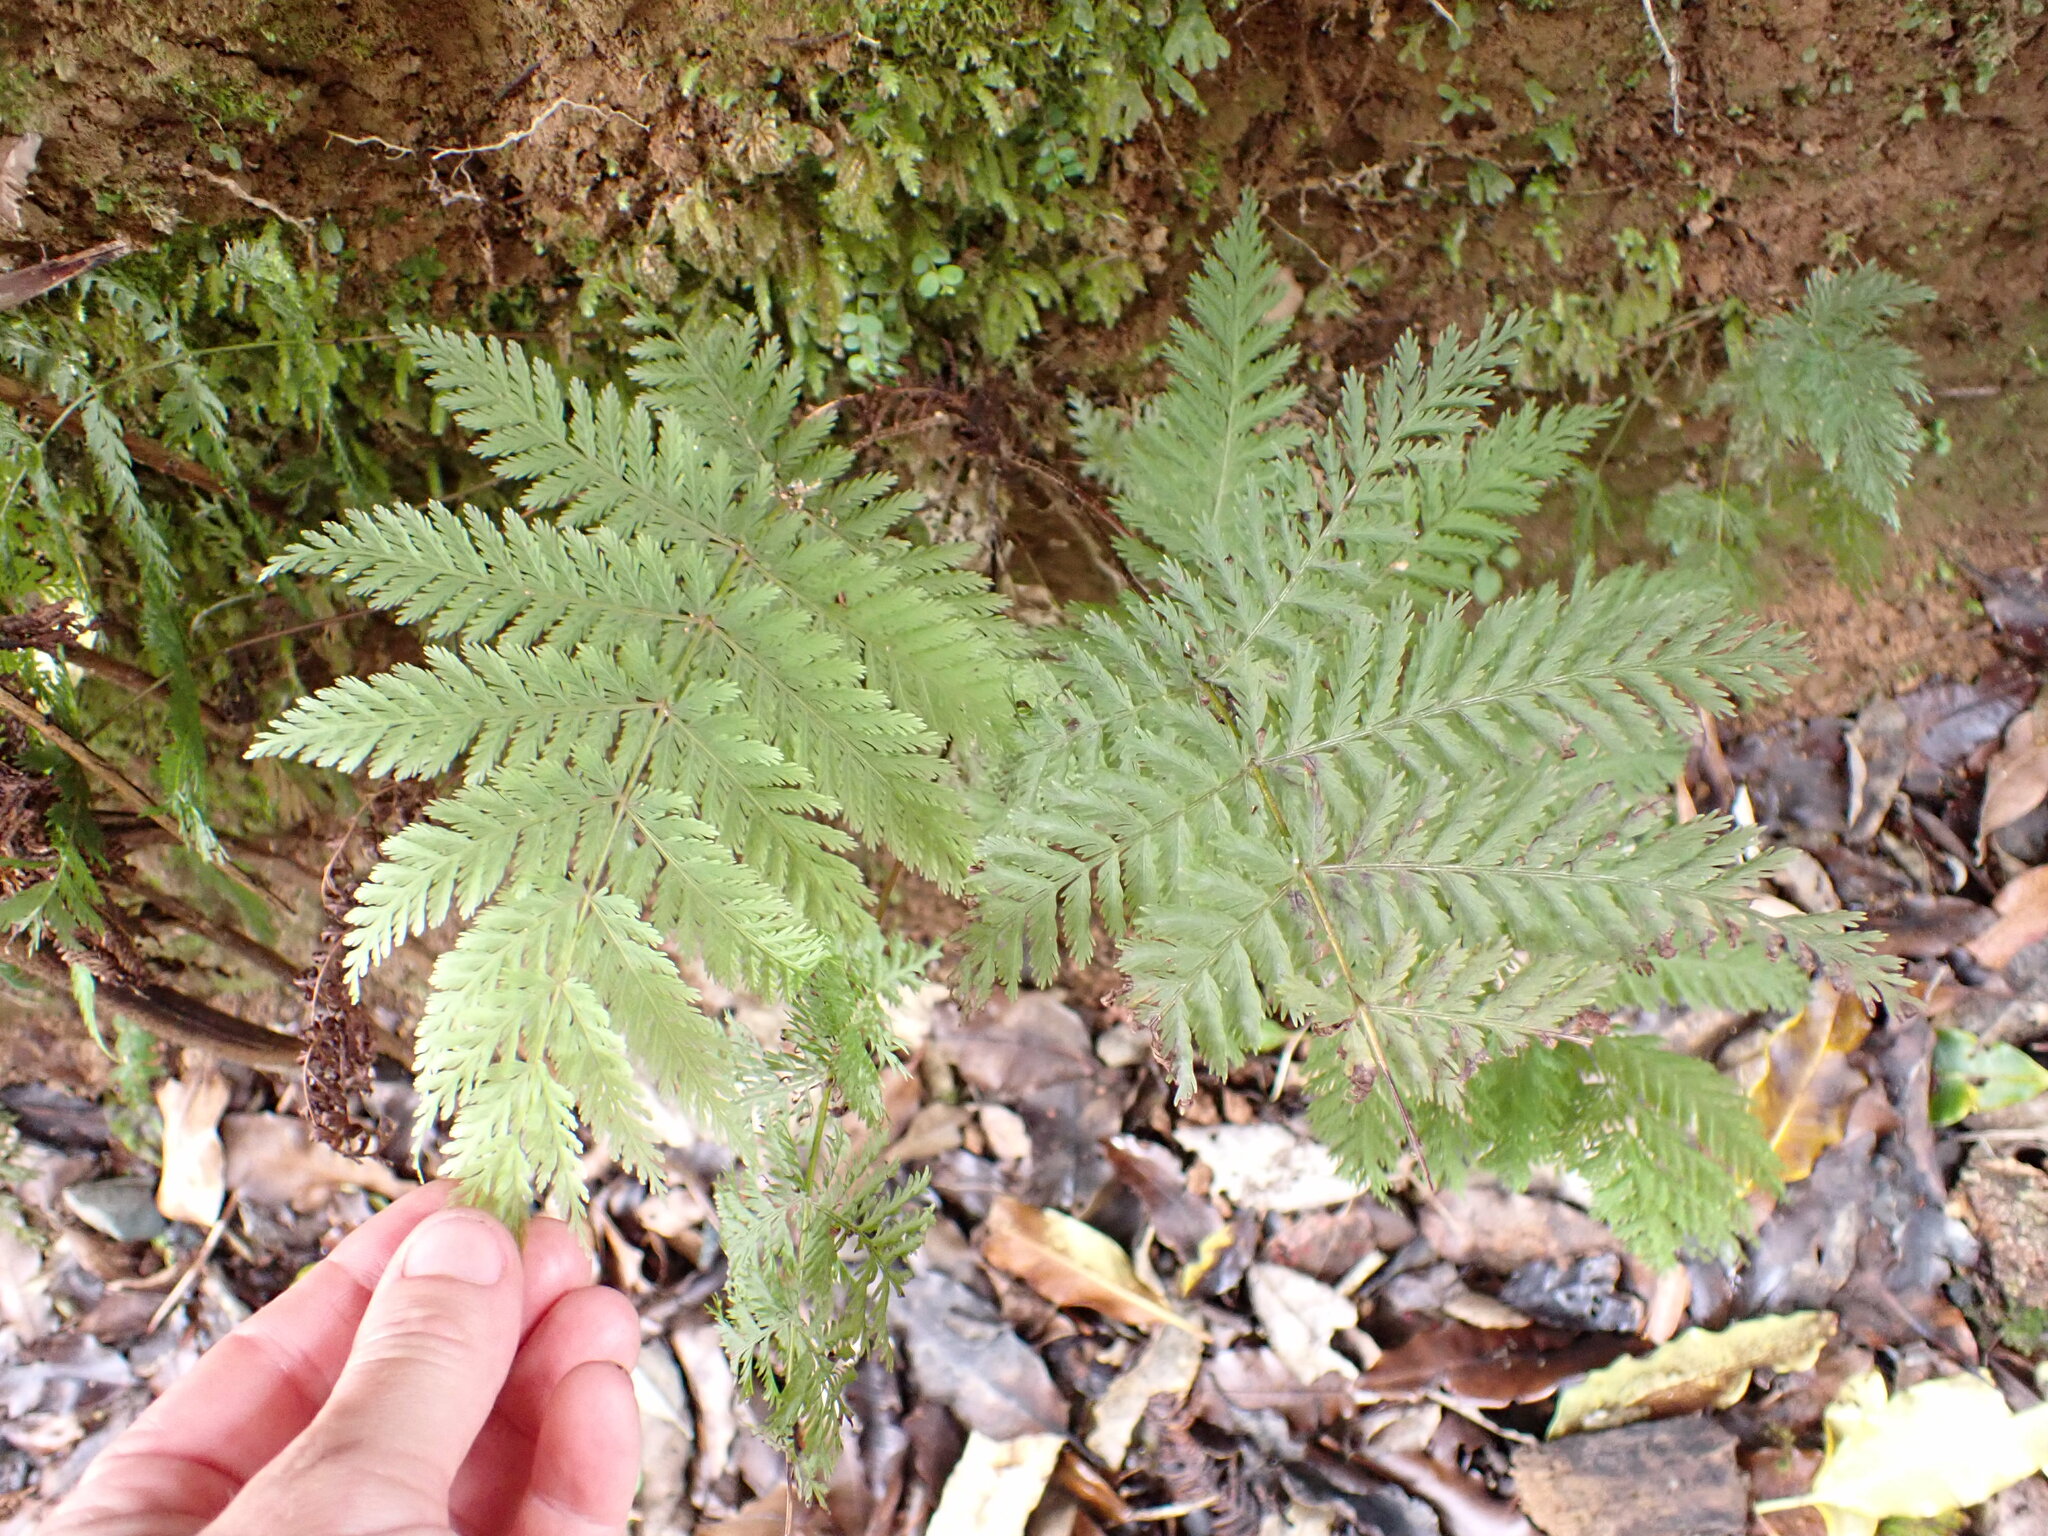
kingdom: Plantae
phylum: Tracheophyta
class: Polypodiopsida
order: Osmundales
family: Osmundaceae
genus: Leptopteris
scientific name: Leptopteris hymenophylloides
